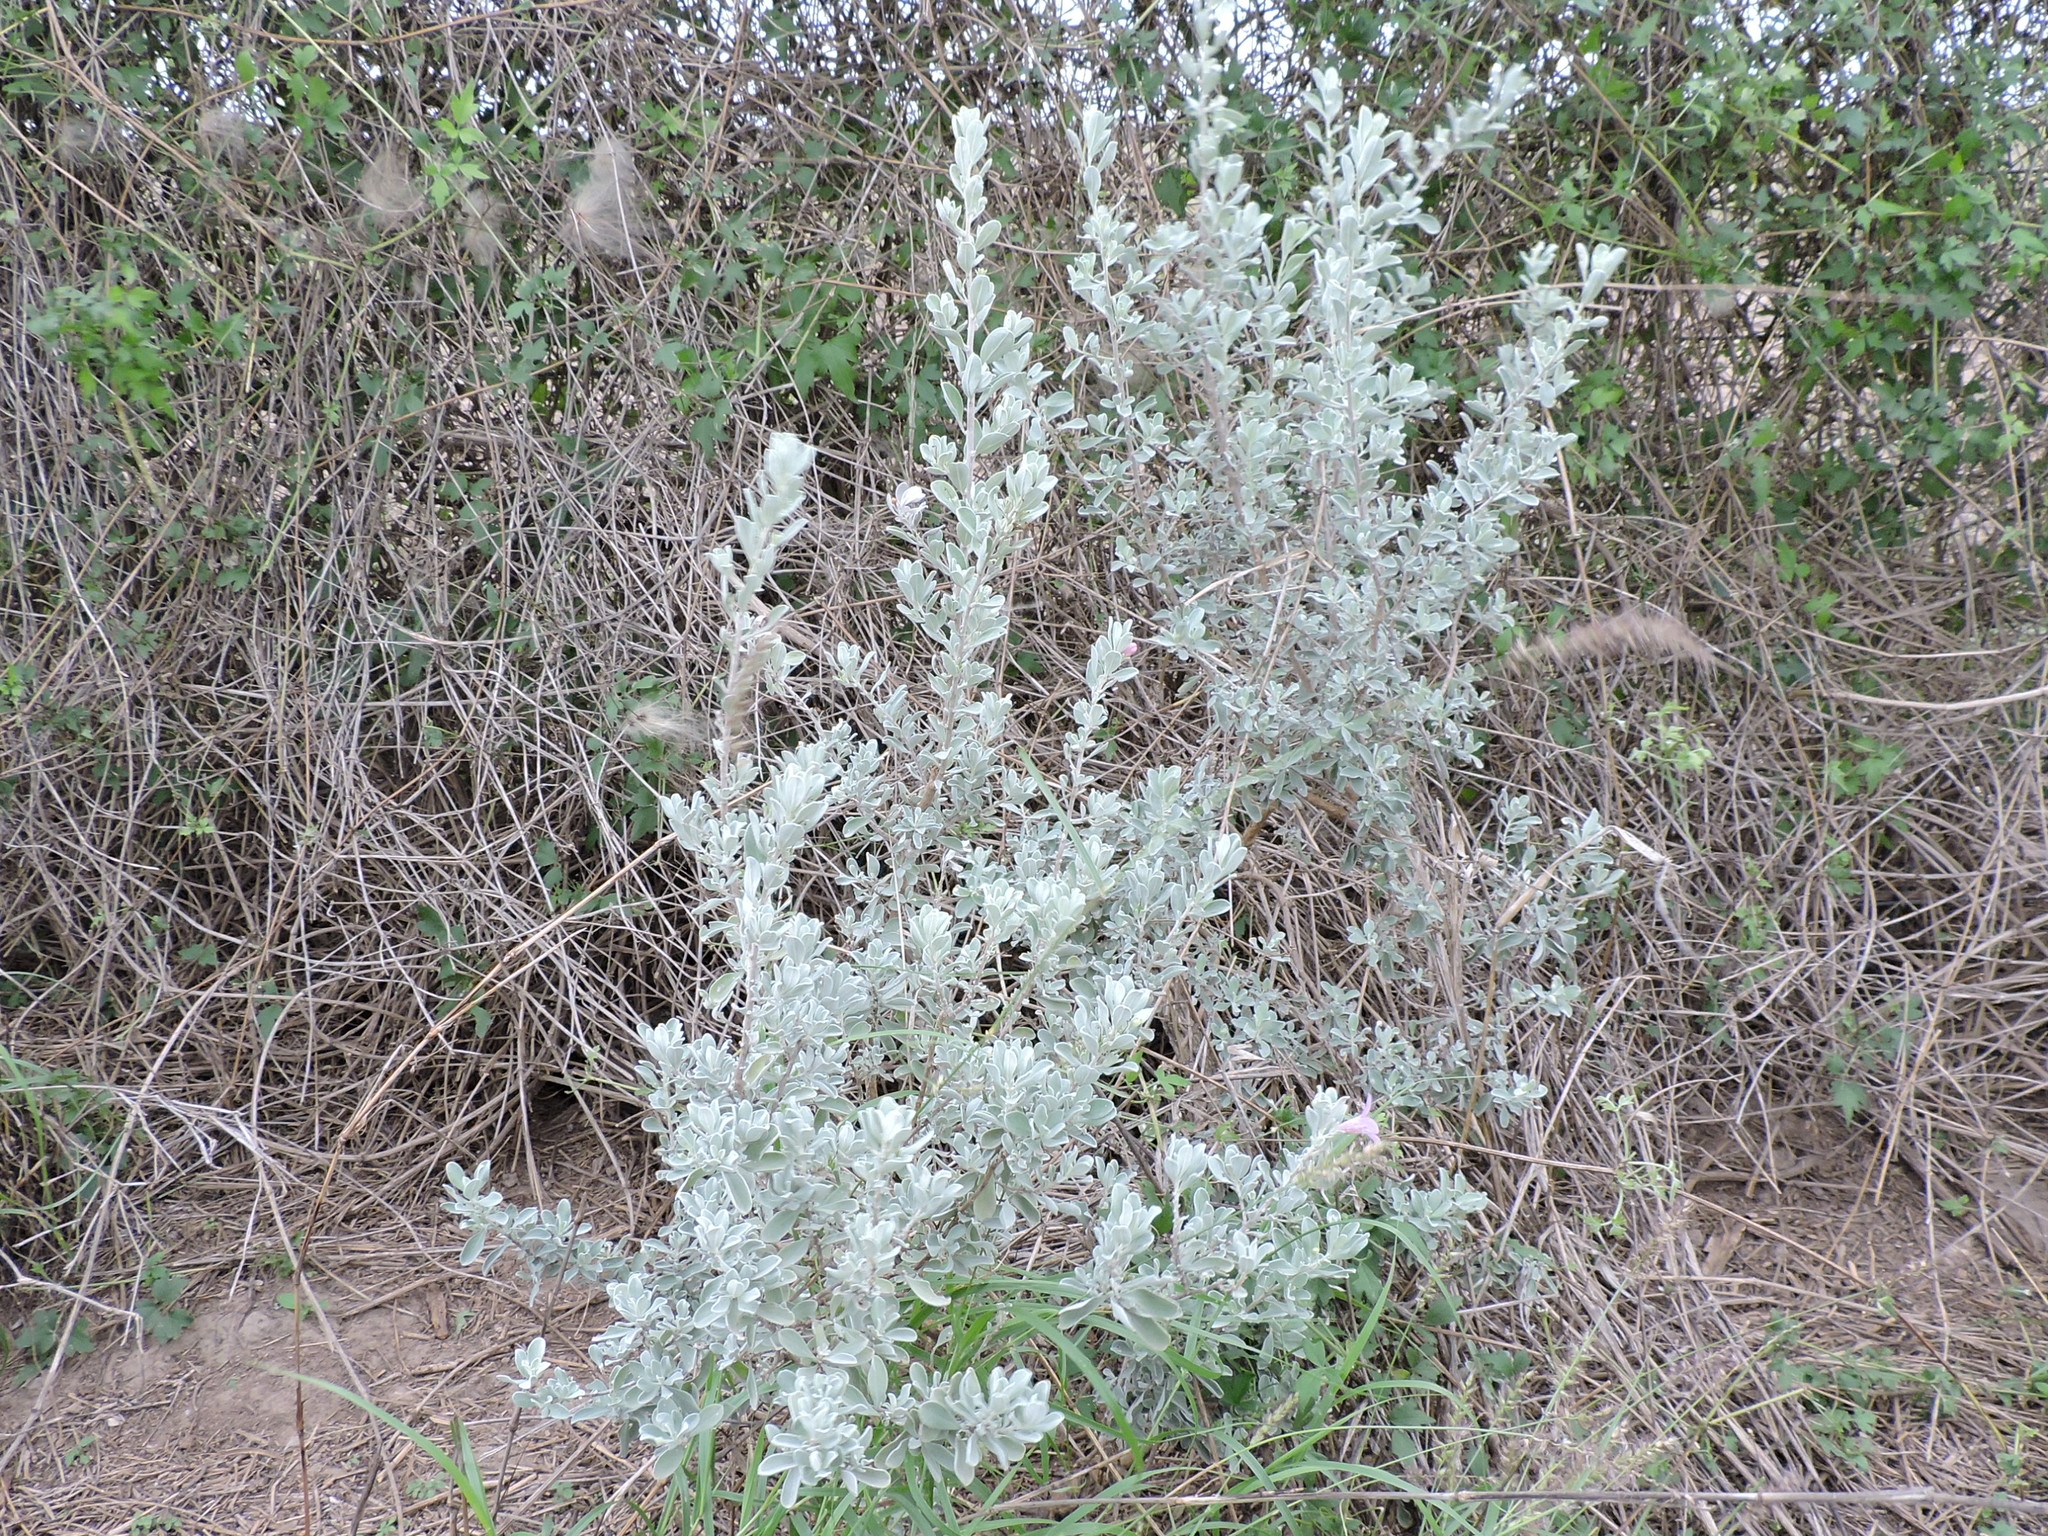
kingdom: Plantae
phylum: Tracheophyta
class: Magnoliopsida
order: Lamiales
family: Scrophulariaceae
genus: Leucophyllum
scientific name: Leucophyllum frutescens
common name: Texas silverleaf
